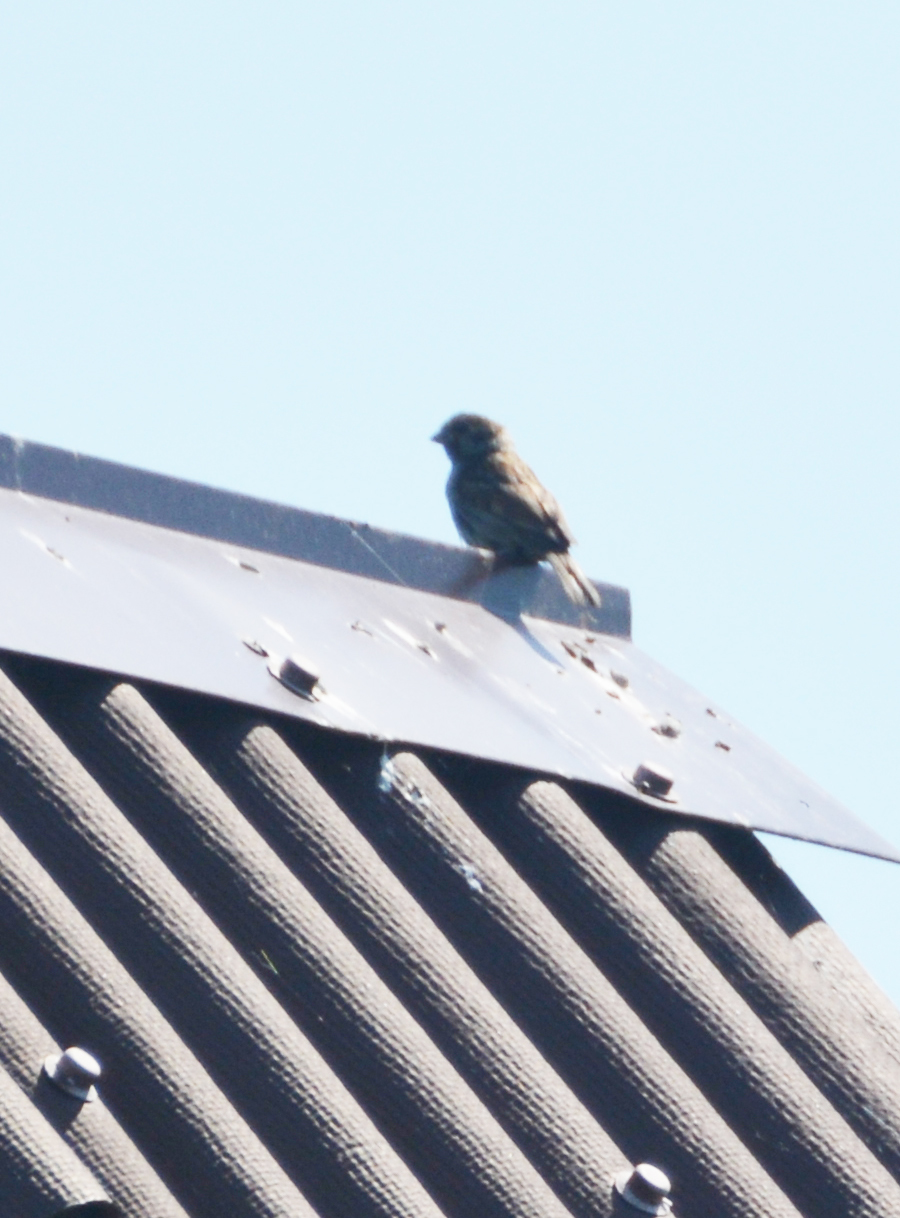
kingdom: Animalia
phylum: Chordata
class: Aves
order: Passeriformes
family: Passeridae
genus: Passer
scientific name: Passer montanus
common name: Eurasian tree sparrow
